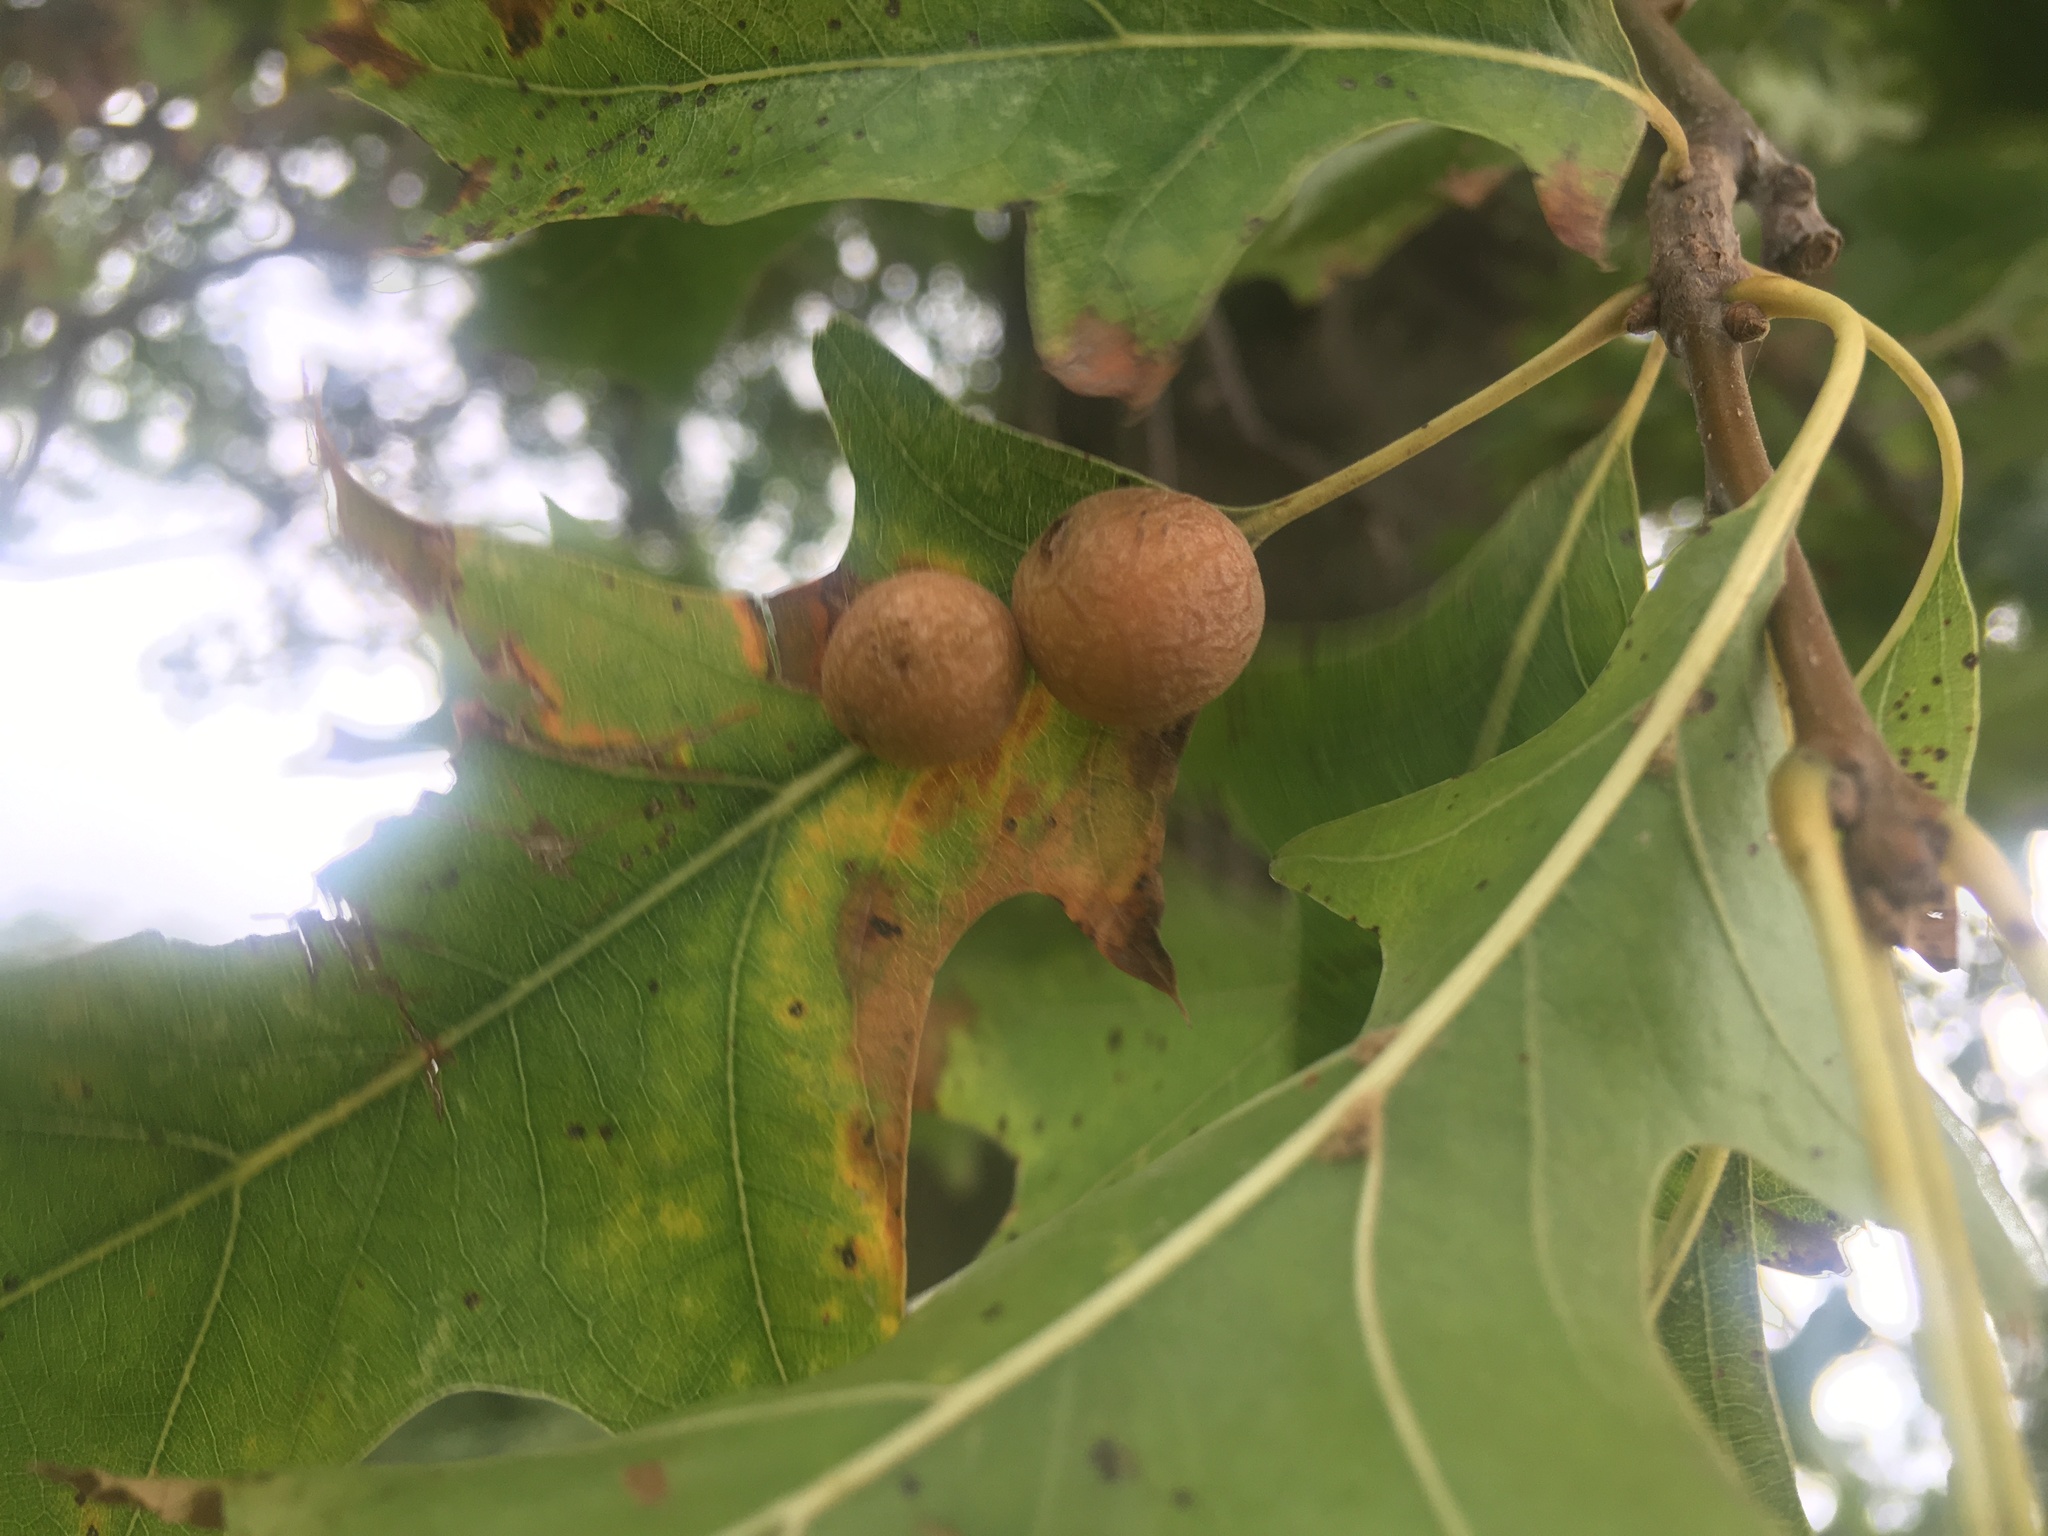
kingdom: Animalia
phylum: Arthropoda
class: Insecta
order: Diptera
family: Cecidomyiidae
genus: Polystepha
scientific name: Polystepha pilulae
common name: Oak leaf gall midge
